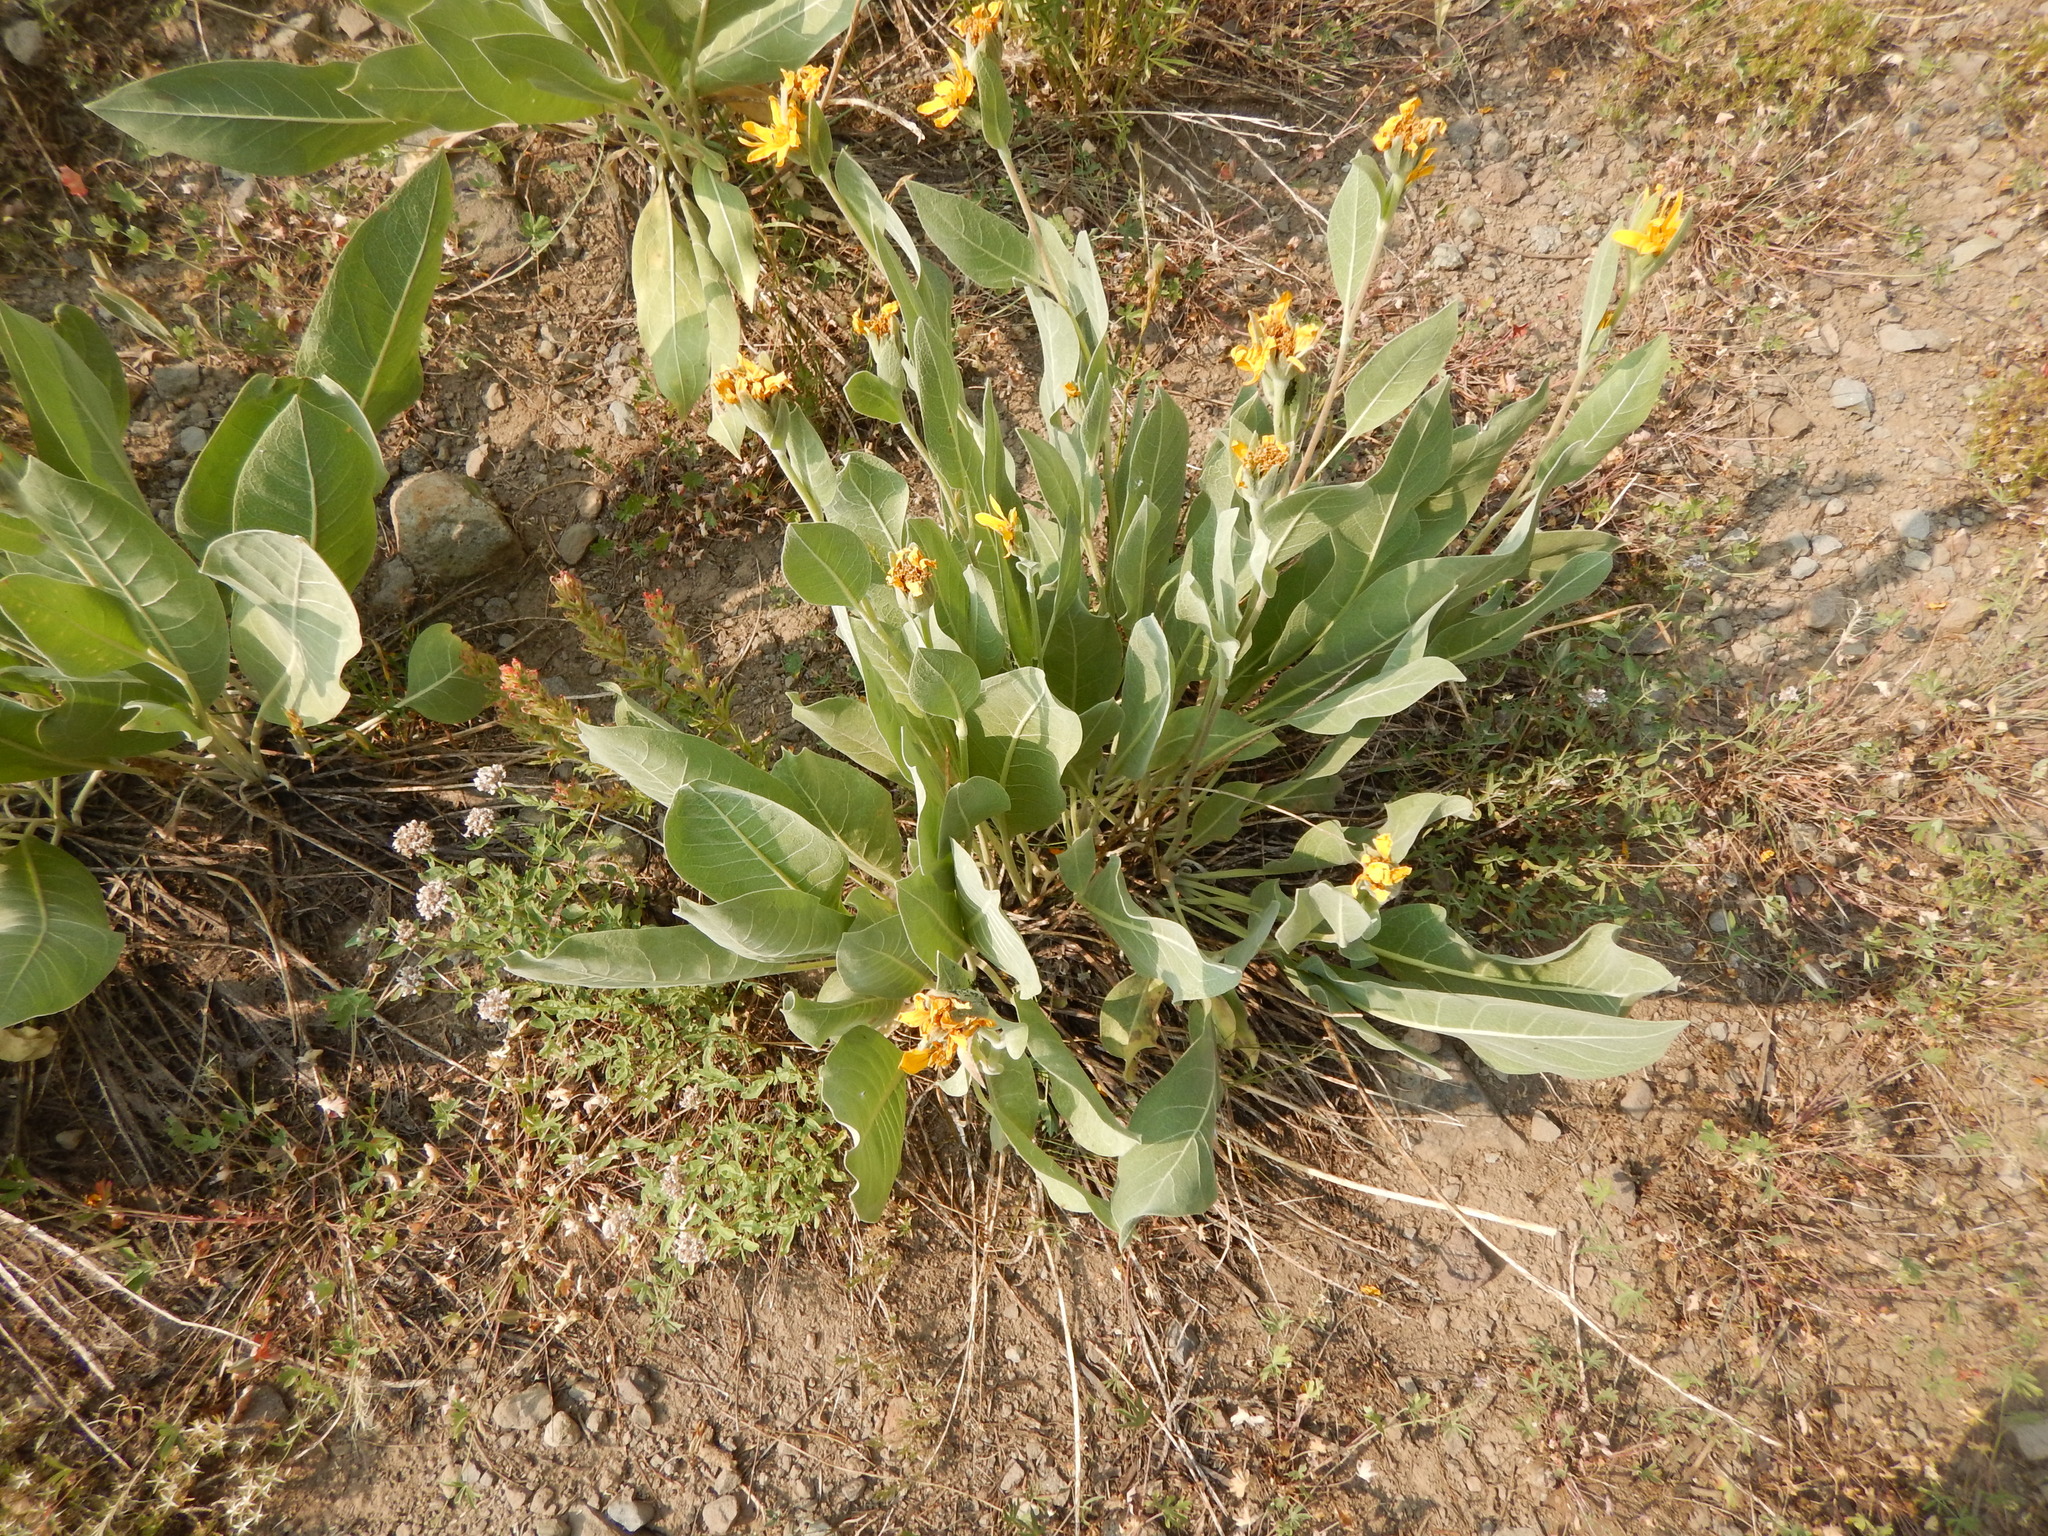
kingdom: Plantae
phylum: Tracheophyta
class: Magnoliopsida
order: Asterales
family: Asteraceae
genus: Wyethia
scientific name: Wyethia mollis
